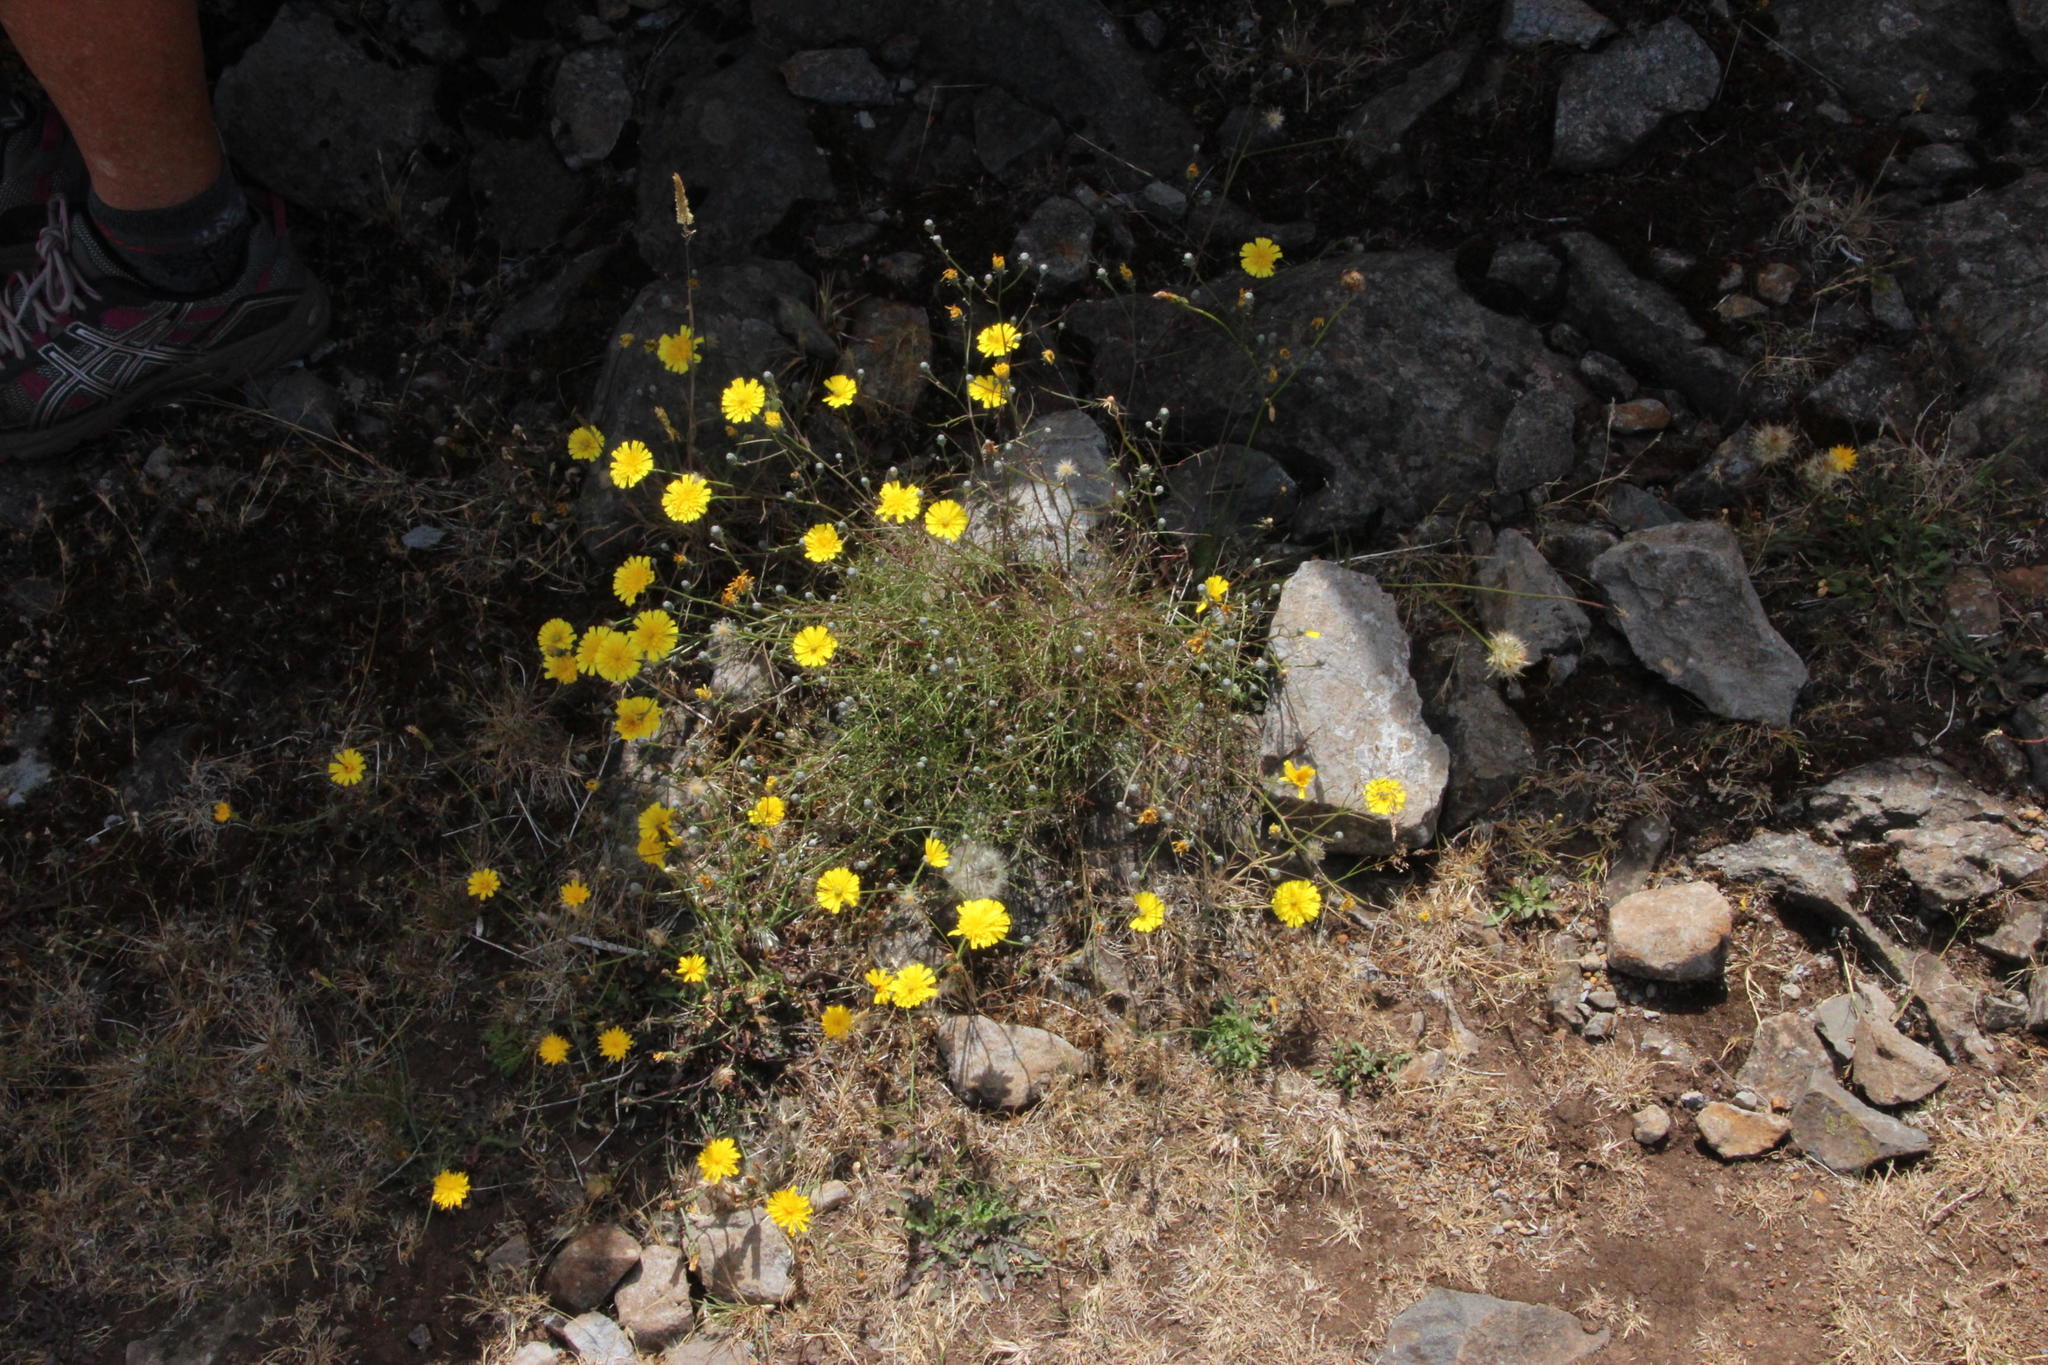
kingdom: Plantae
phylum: Tracheophyta
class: Magnoliopsida
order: Asterales
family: Asteraceae
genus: Tolpis
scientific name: Tolpis succulenta
